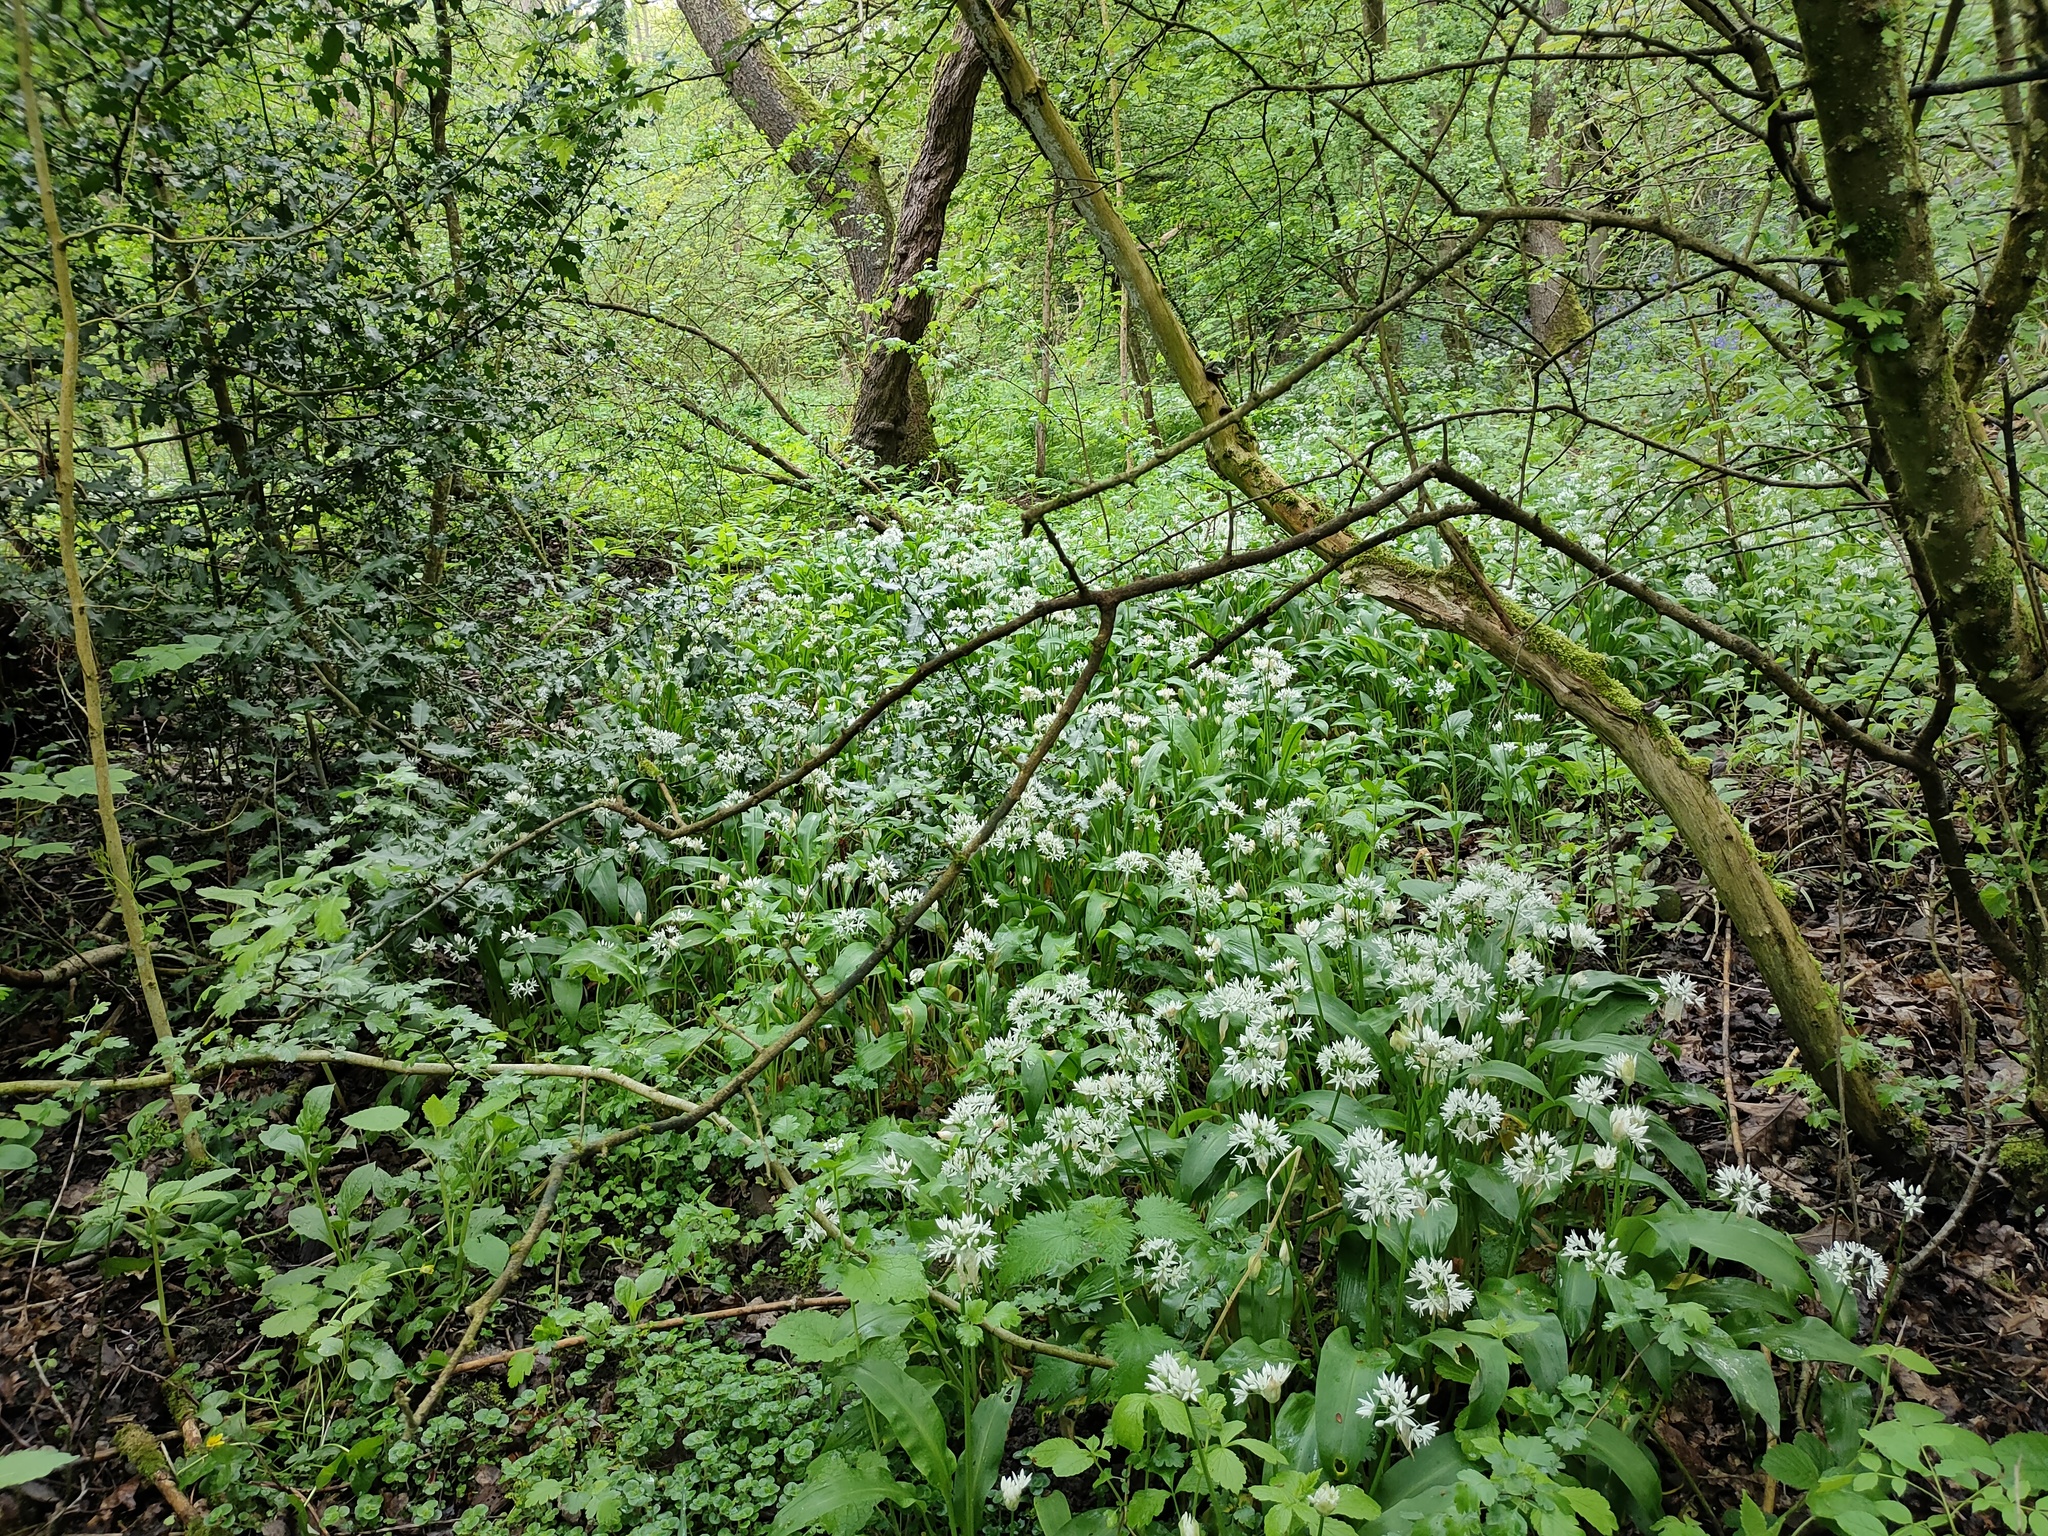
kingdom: Plantae
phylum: Tracheophyta
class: Liliopsida
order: Asparagales
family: Amaryllidaceae
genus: Allium
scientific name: Allium ursinum
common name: Ramsons
